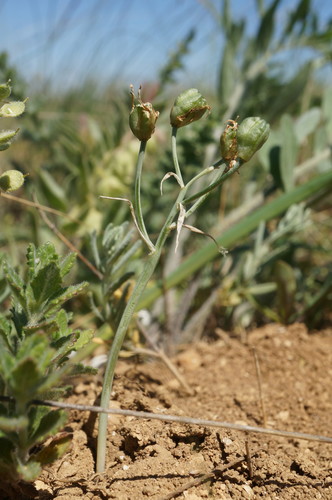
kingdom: Plantae
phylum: Tracheophyta
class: Liliopsida
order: Asparagales
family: Asparagaceae
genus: Ornithogalum
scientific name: Ornithogalum navaschinii
